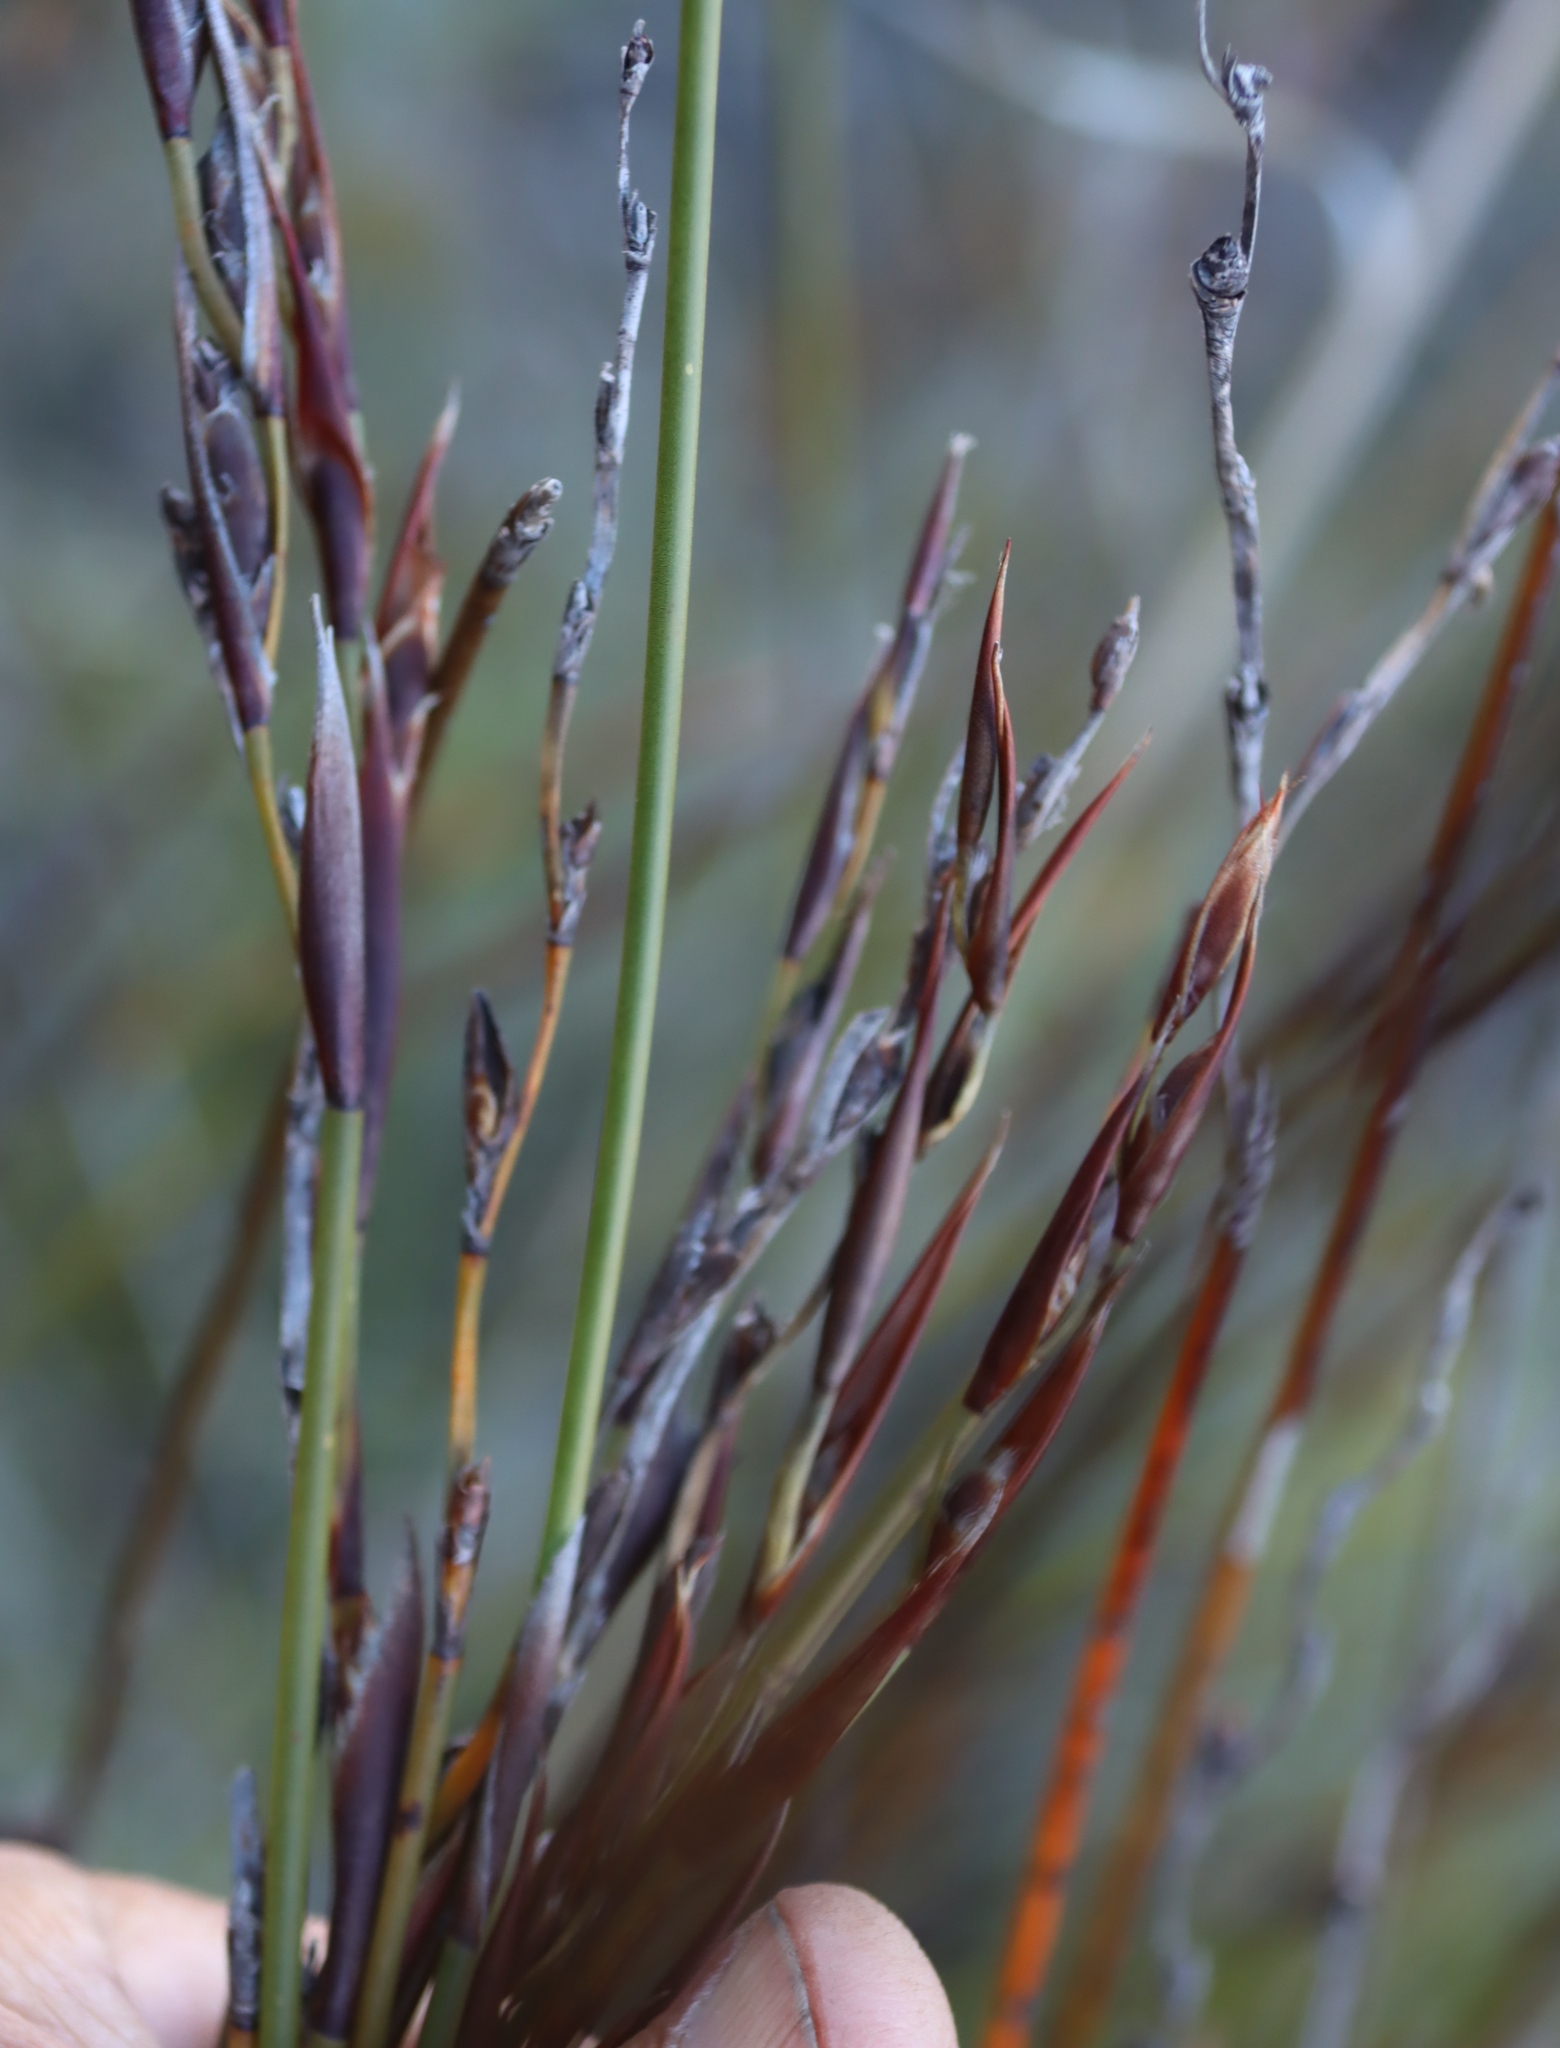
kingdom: Plantae
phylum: Tracheophyta
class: Liliopsida
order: Poales
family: Restionaceae
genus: Cannomois
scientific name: Cannomois scirpoides
